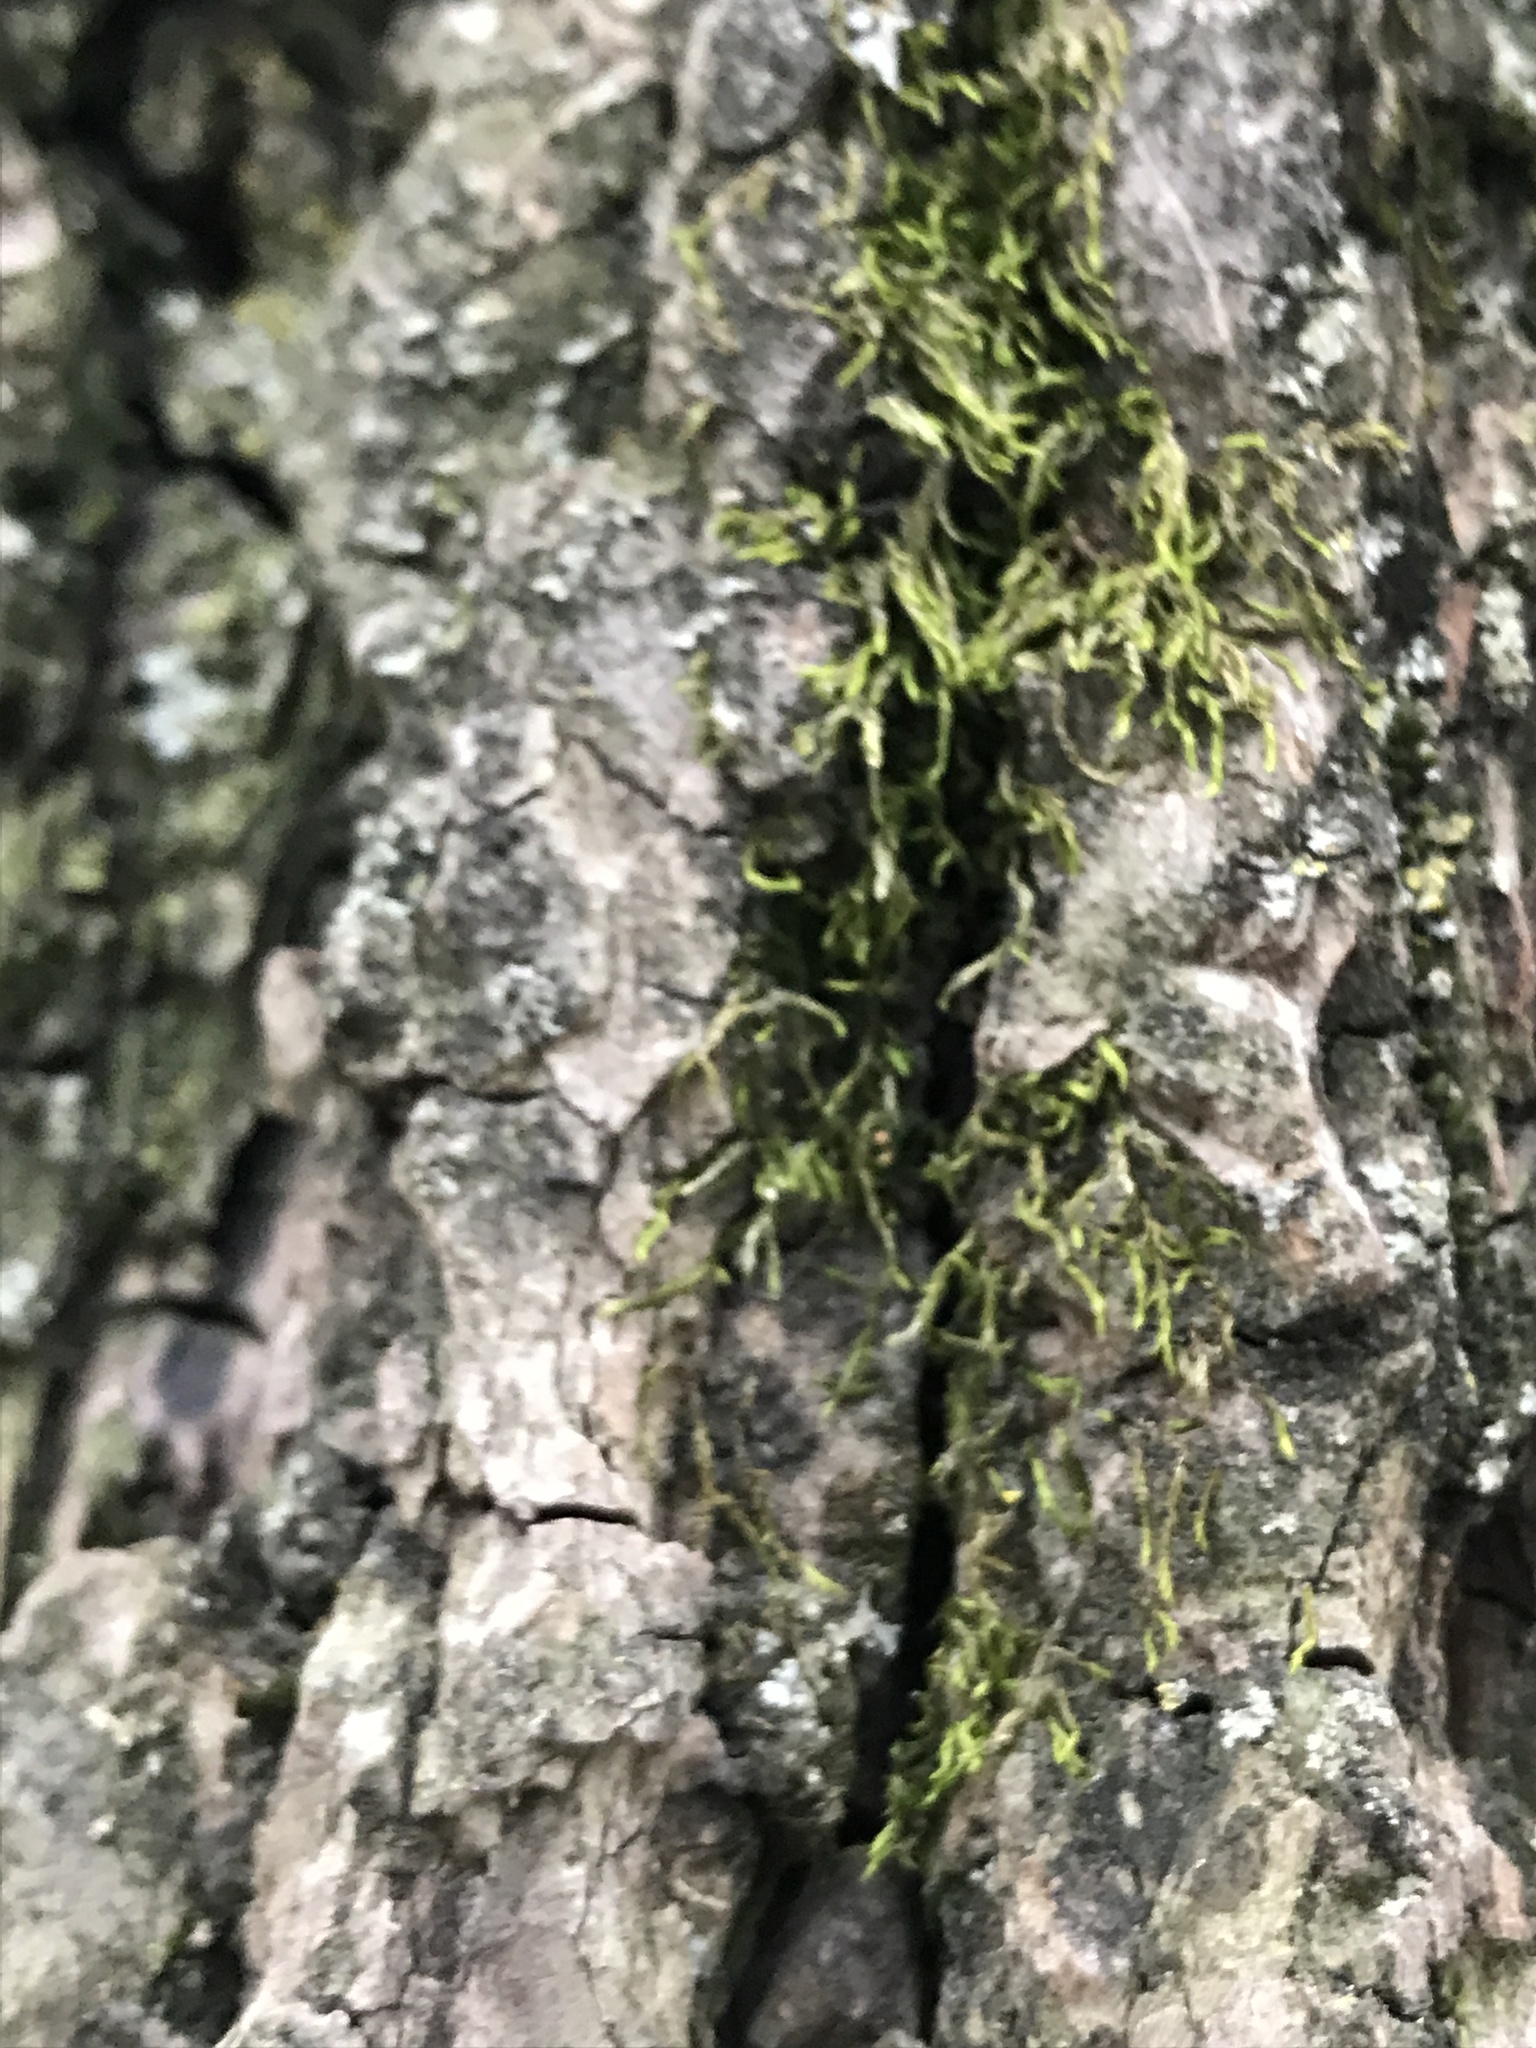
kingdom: Plantae
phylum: Bryophyta
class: Bryopsida
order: Hypnales
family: Entodontaceae
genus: Entodon
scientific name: Entodon seductrix
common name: Round-stemmed entodon moss
